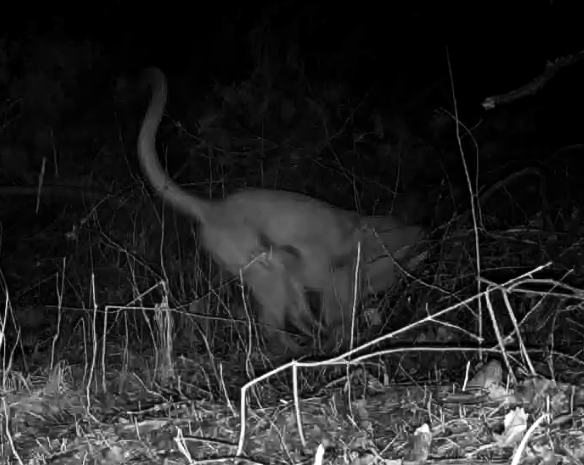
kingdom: Animalia
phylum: Chordata
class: Mammalia
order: Carnivora
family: Felidae
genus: Puma
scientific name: Puma concolor
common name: Puma
